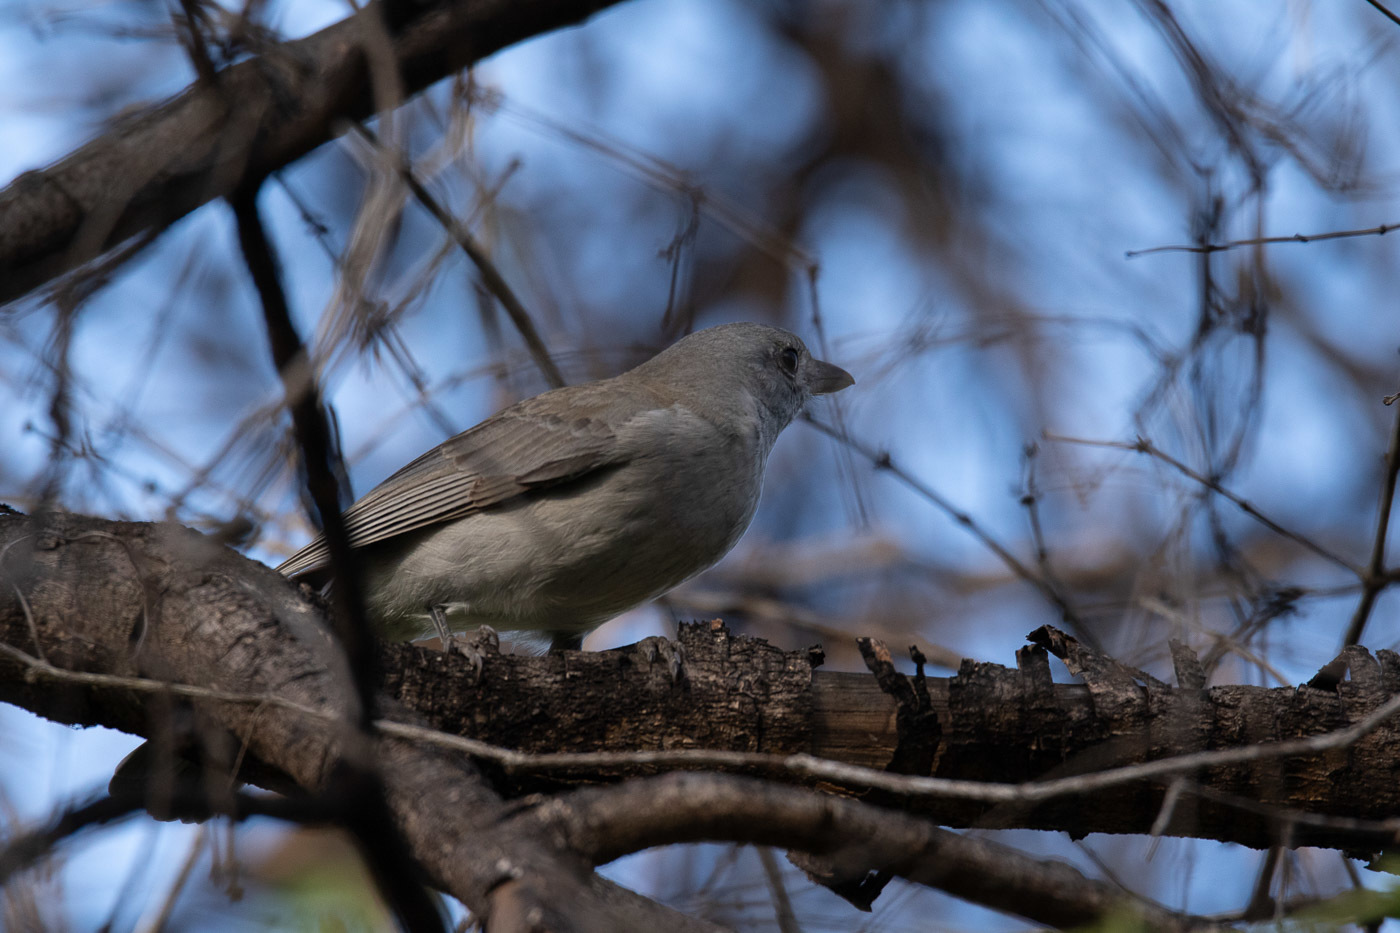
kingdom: Animalia
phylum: Chordata
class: Aves
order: Passeriformes
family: Pachycephalidae
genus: Colluricincla
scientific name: Colluricincla harmonica
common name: Grey shrikethrush
